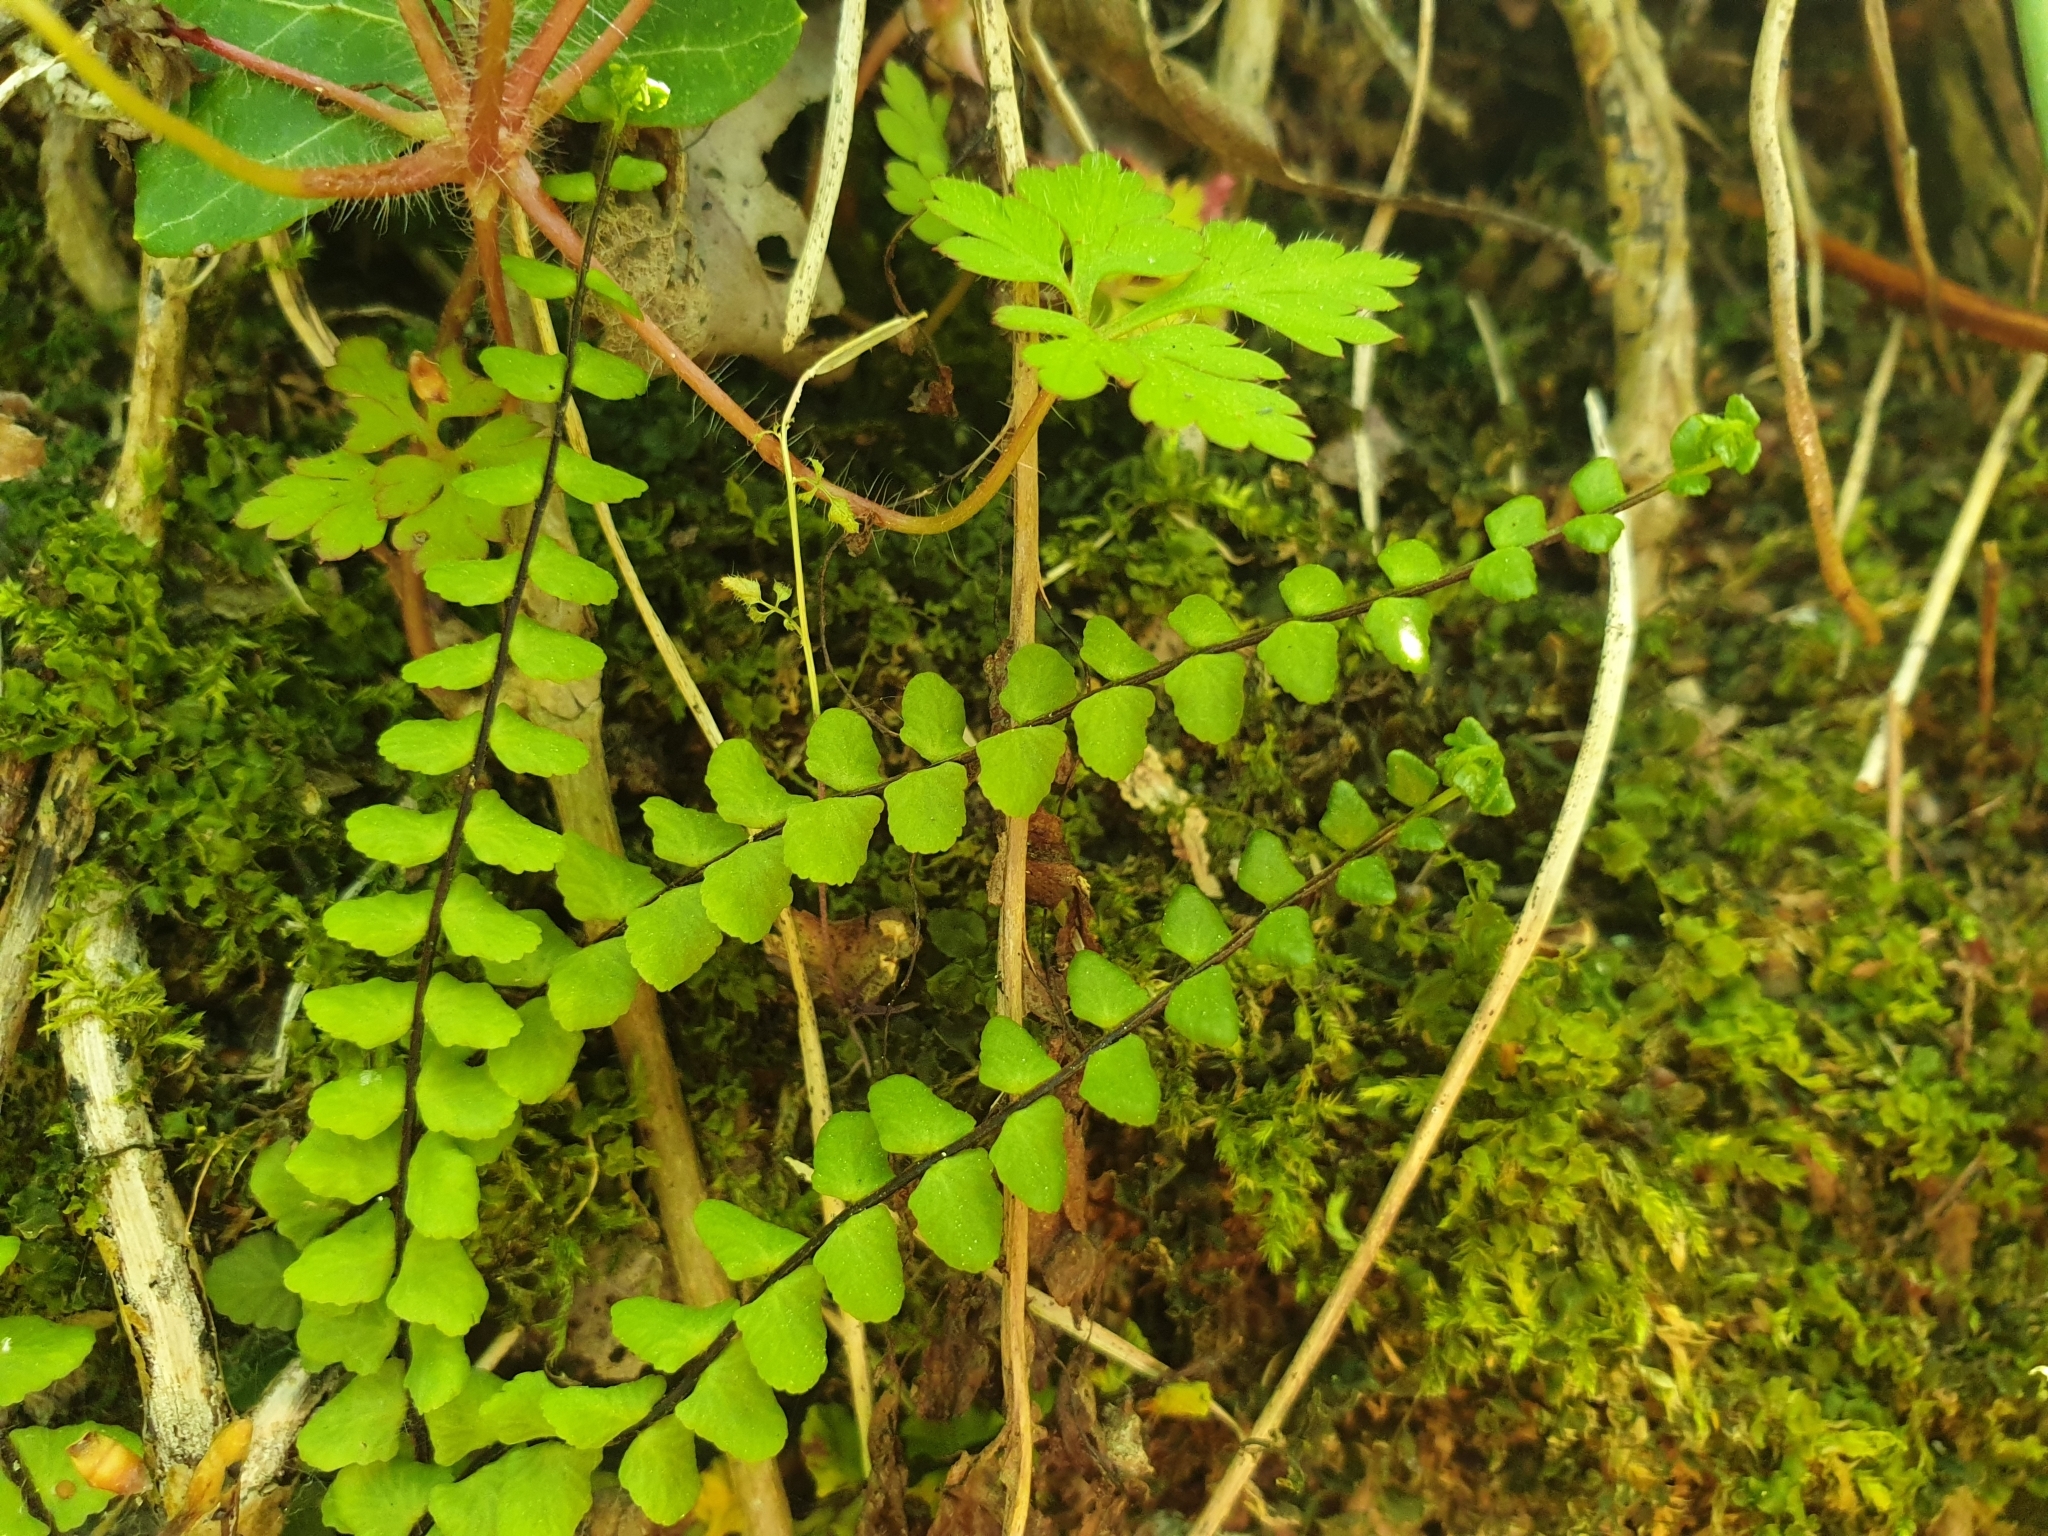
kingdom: Plantae
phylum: Tracheophyta
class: Polypodiopsida
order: Polypodiales
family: Aspleniaceae
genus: Asplenium
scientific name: Asplenium trichomanes
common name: Maidenhair spleenwort
